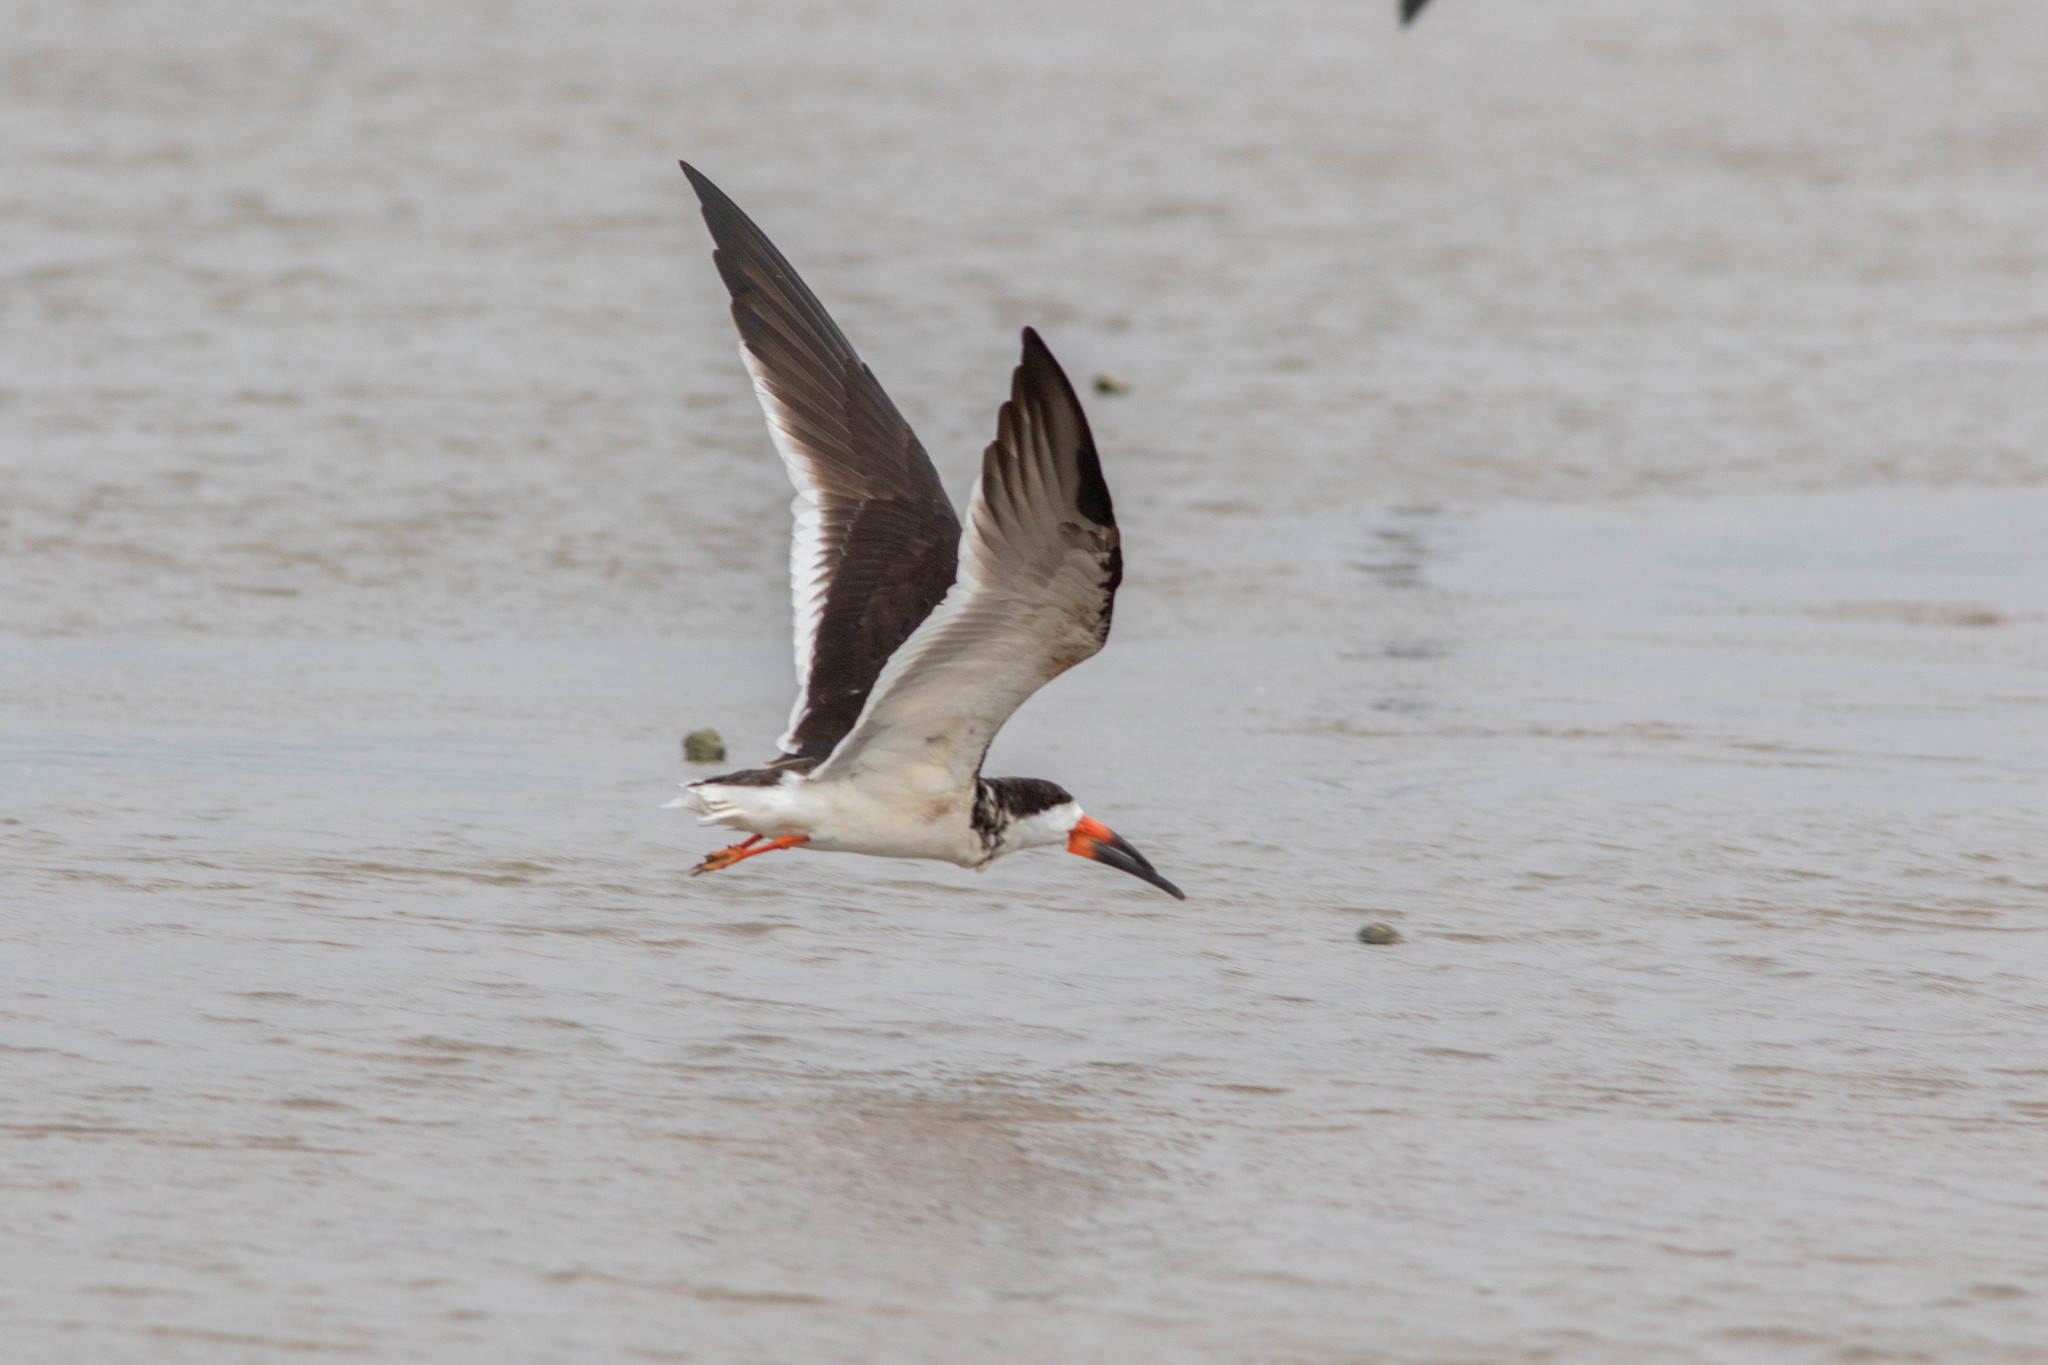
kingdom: Animalia
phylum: Chordata
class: Aves
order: Charadriiformes
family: Laridae
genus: Rynchops
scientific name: Rynchops niger
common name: Black skimmer
